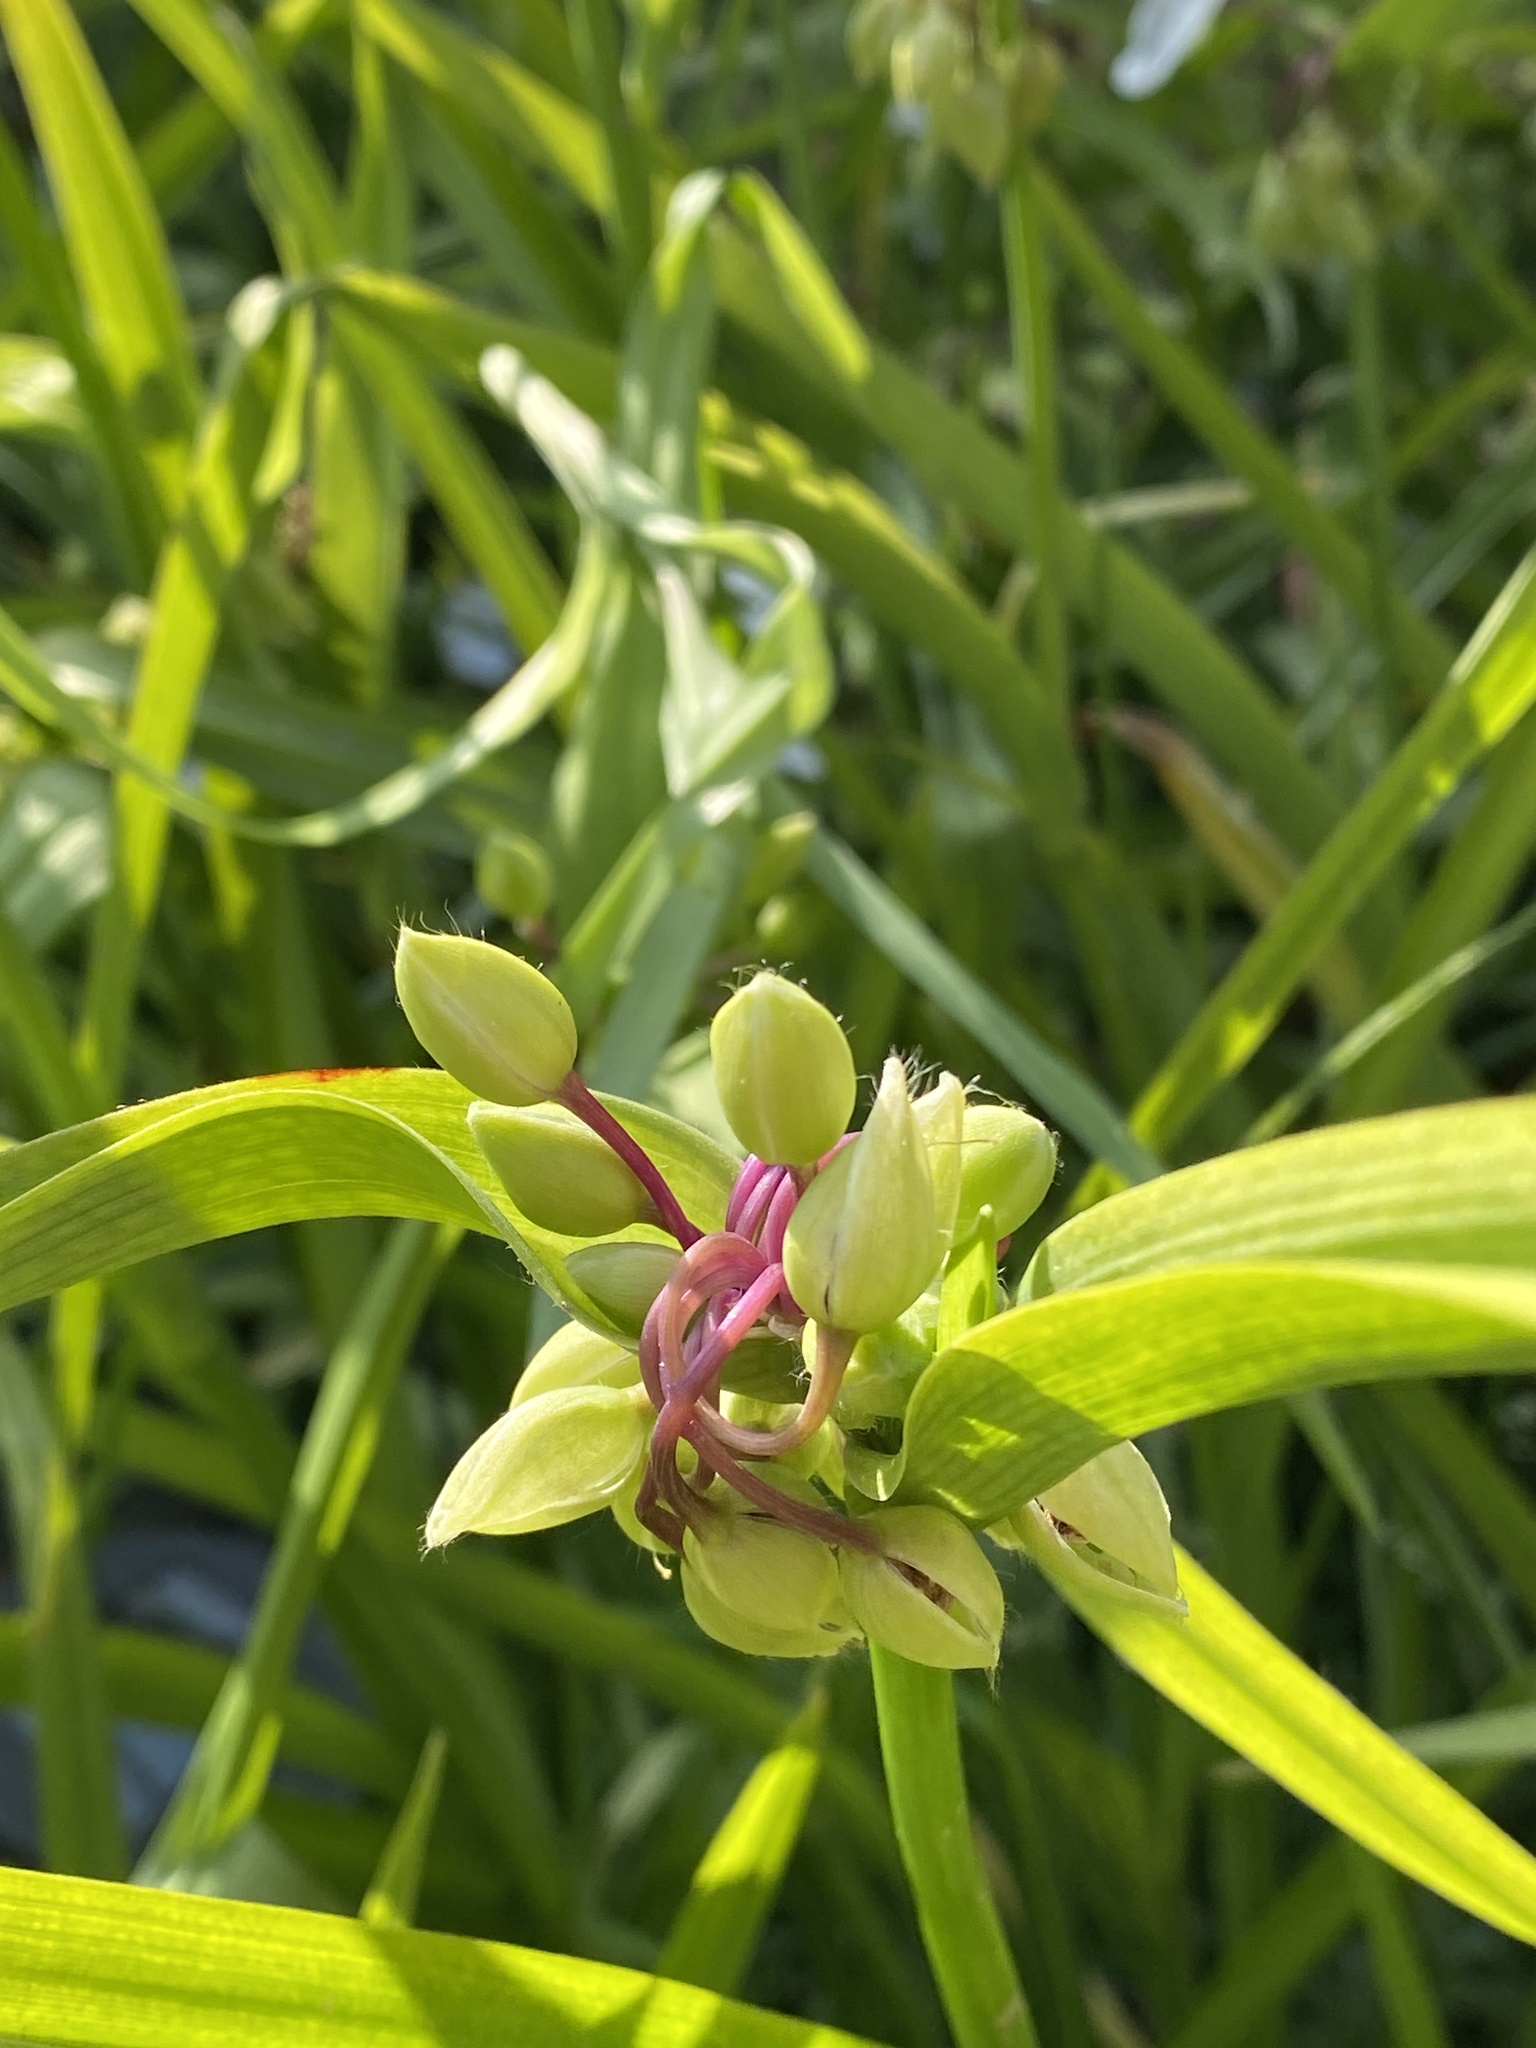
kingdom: Plantae
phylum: Tracheophyta
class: Liliopsida
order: Commelinales
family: Commelinaceae
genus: Tradescantia
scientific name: Tradescantia virginiana
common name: Spiderwort
